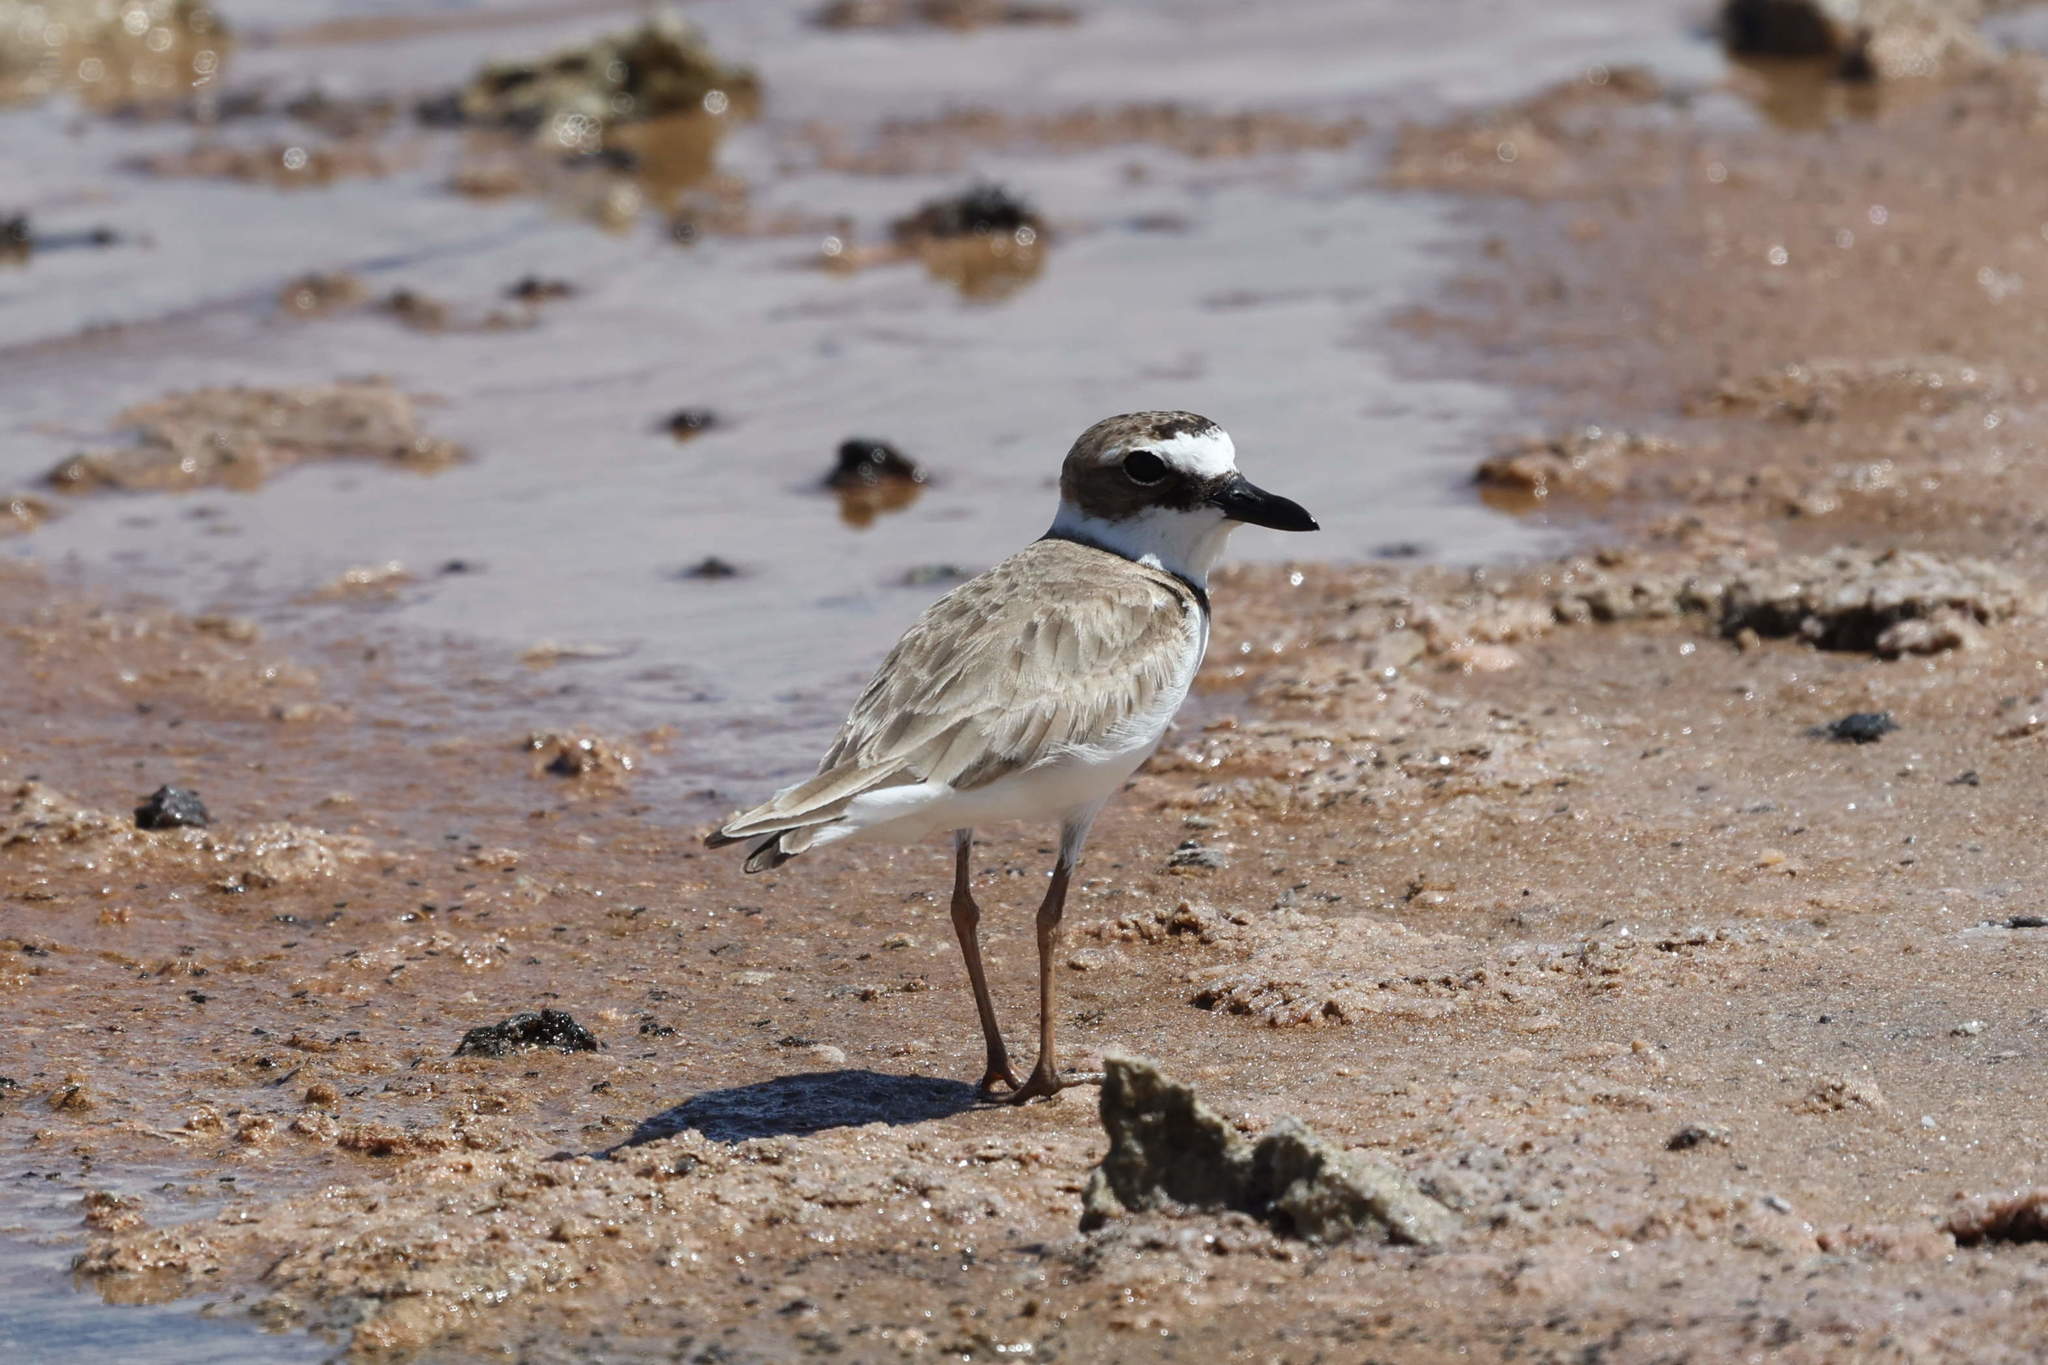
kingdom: Animalia
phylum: Chordata
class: Aves
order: Charadriiformes
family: Charadriidae
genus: Anarhynchus
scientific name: Anarhynchus
